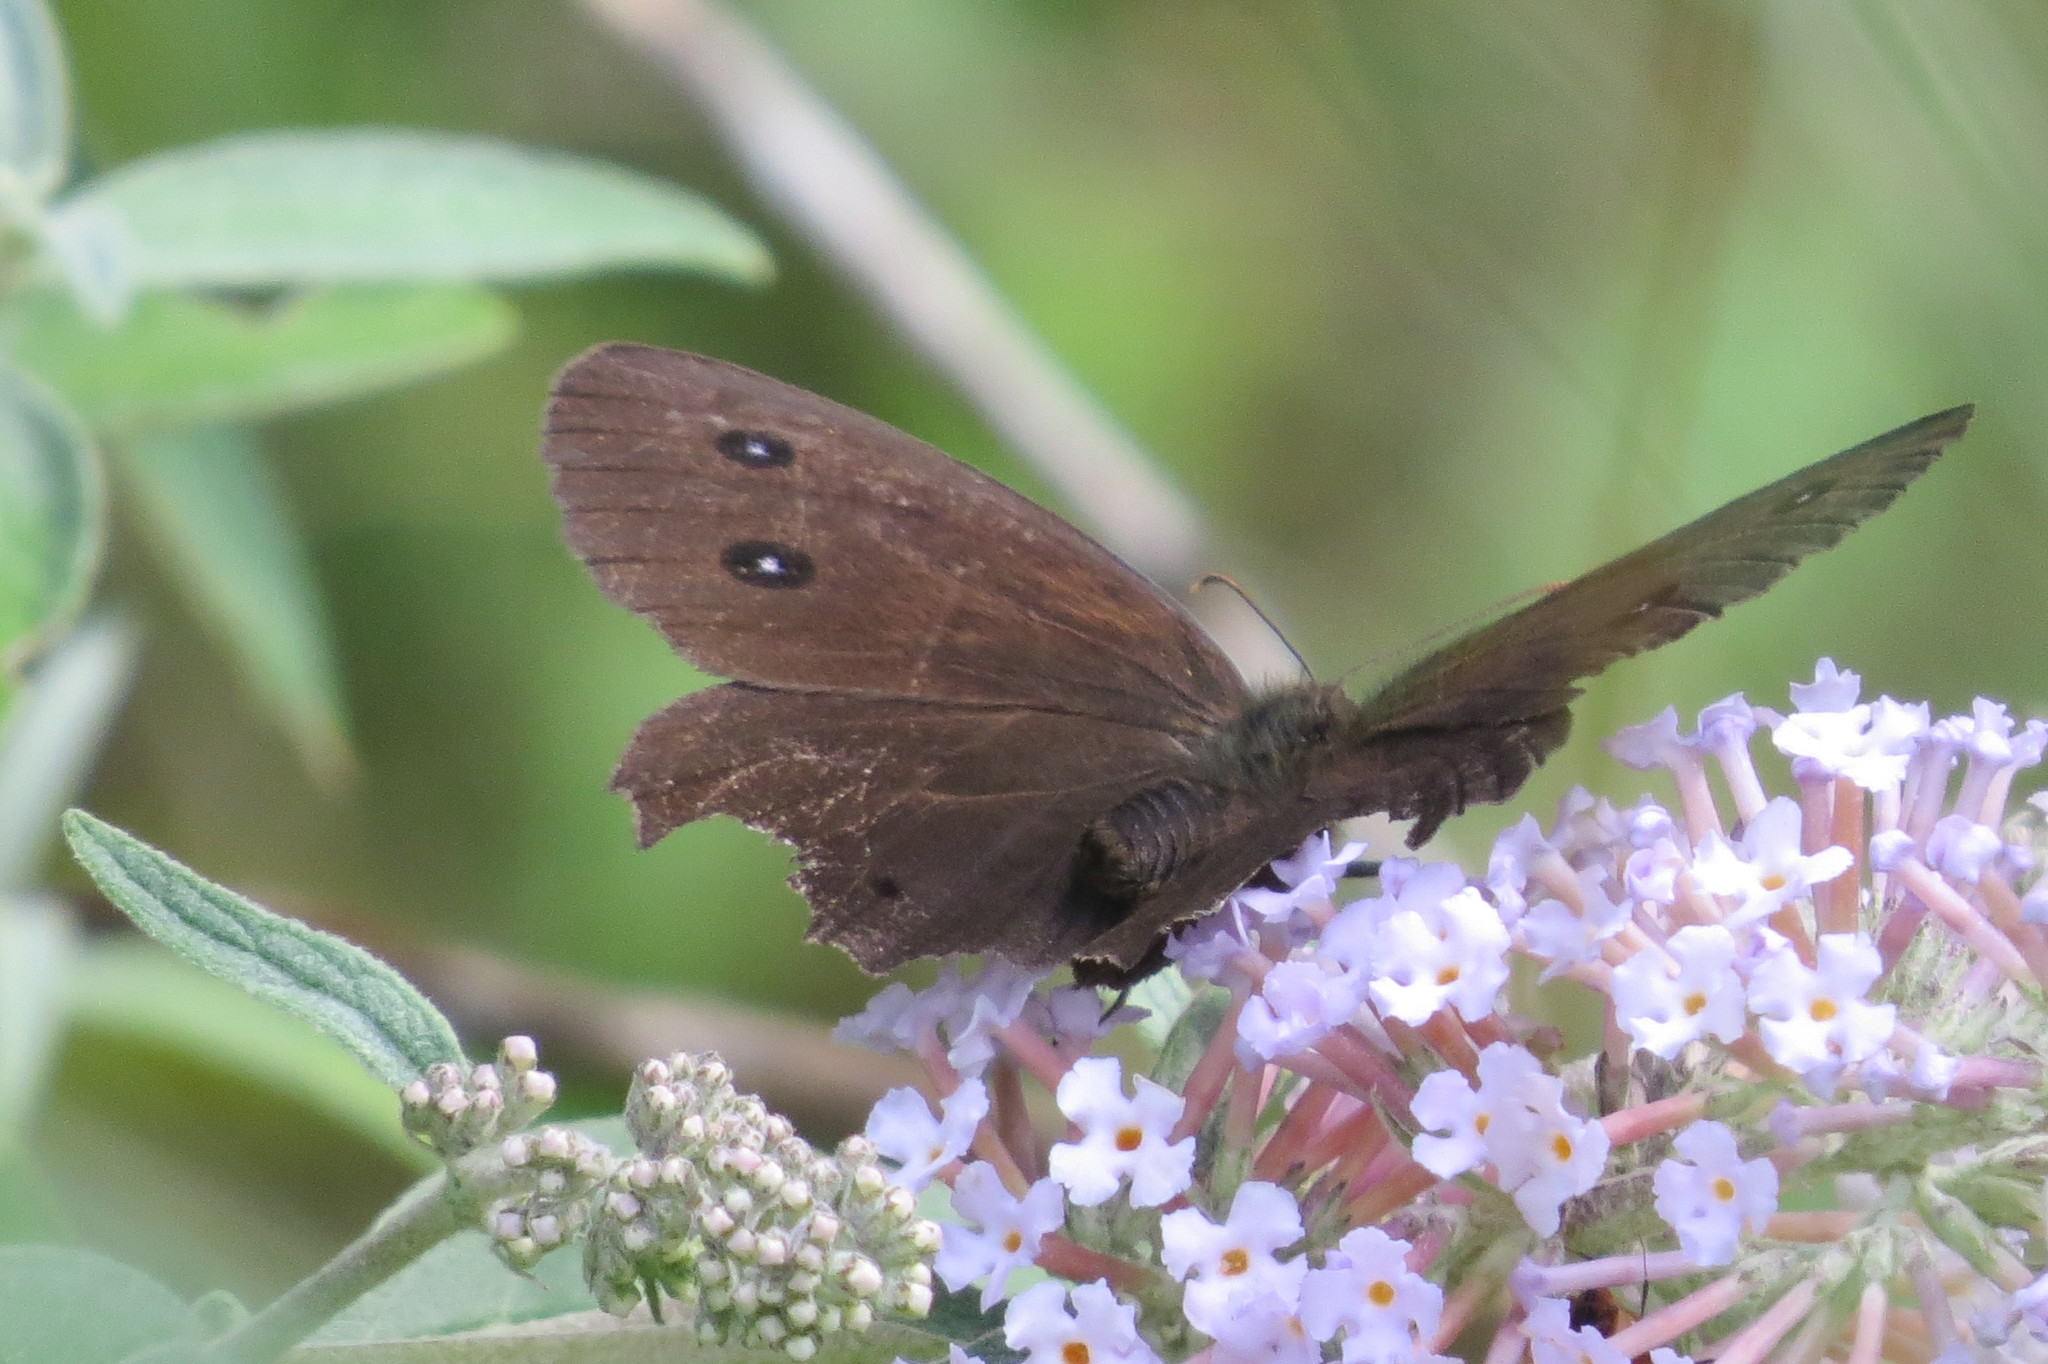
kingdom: Animalia
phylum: Arthropoda
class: Insecta
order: Lepidoptera
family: Nymphalidae
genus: Minois
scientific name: Minois dryas
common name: Dryad
